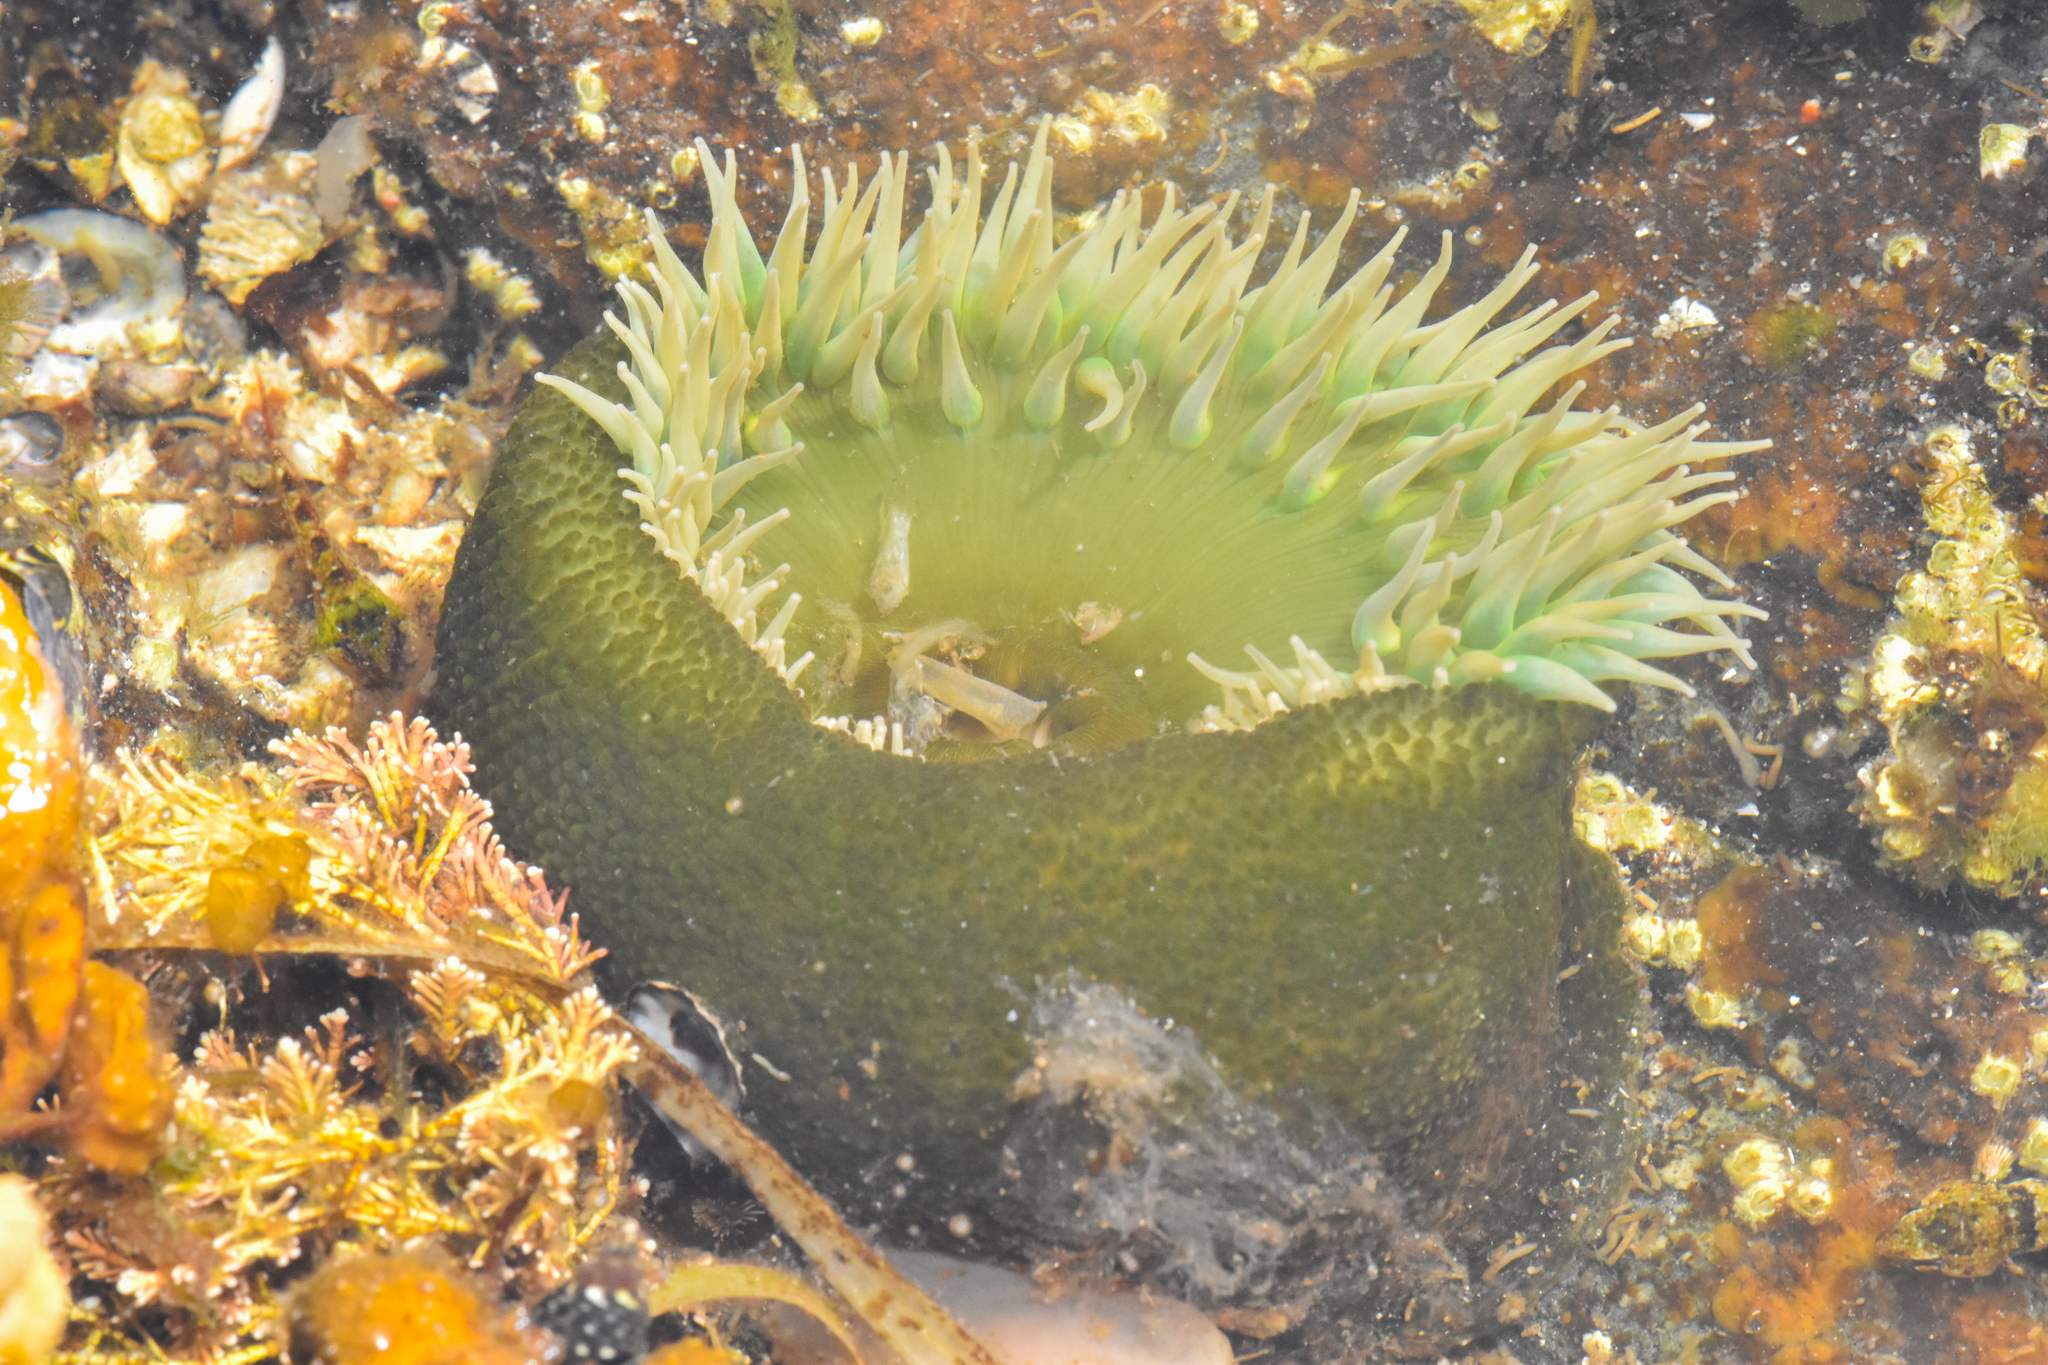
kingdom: Animalia
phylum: Cnidaria
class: Anthozoa
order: Actiniaria
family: Actiniidae
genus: Anthopleura
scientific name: Anthopleura xanthogrammica
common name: Giant green anemone
